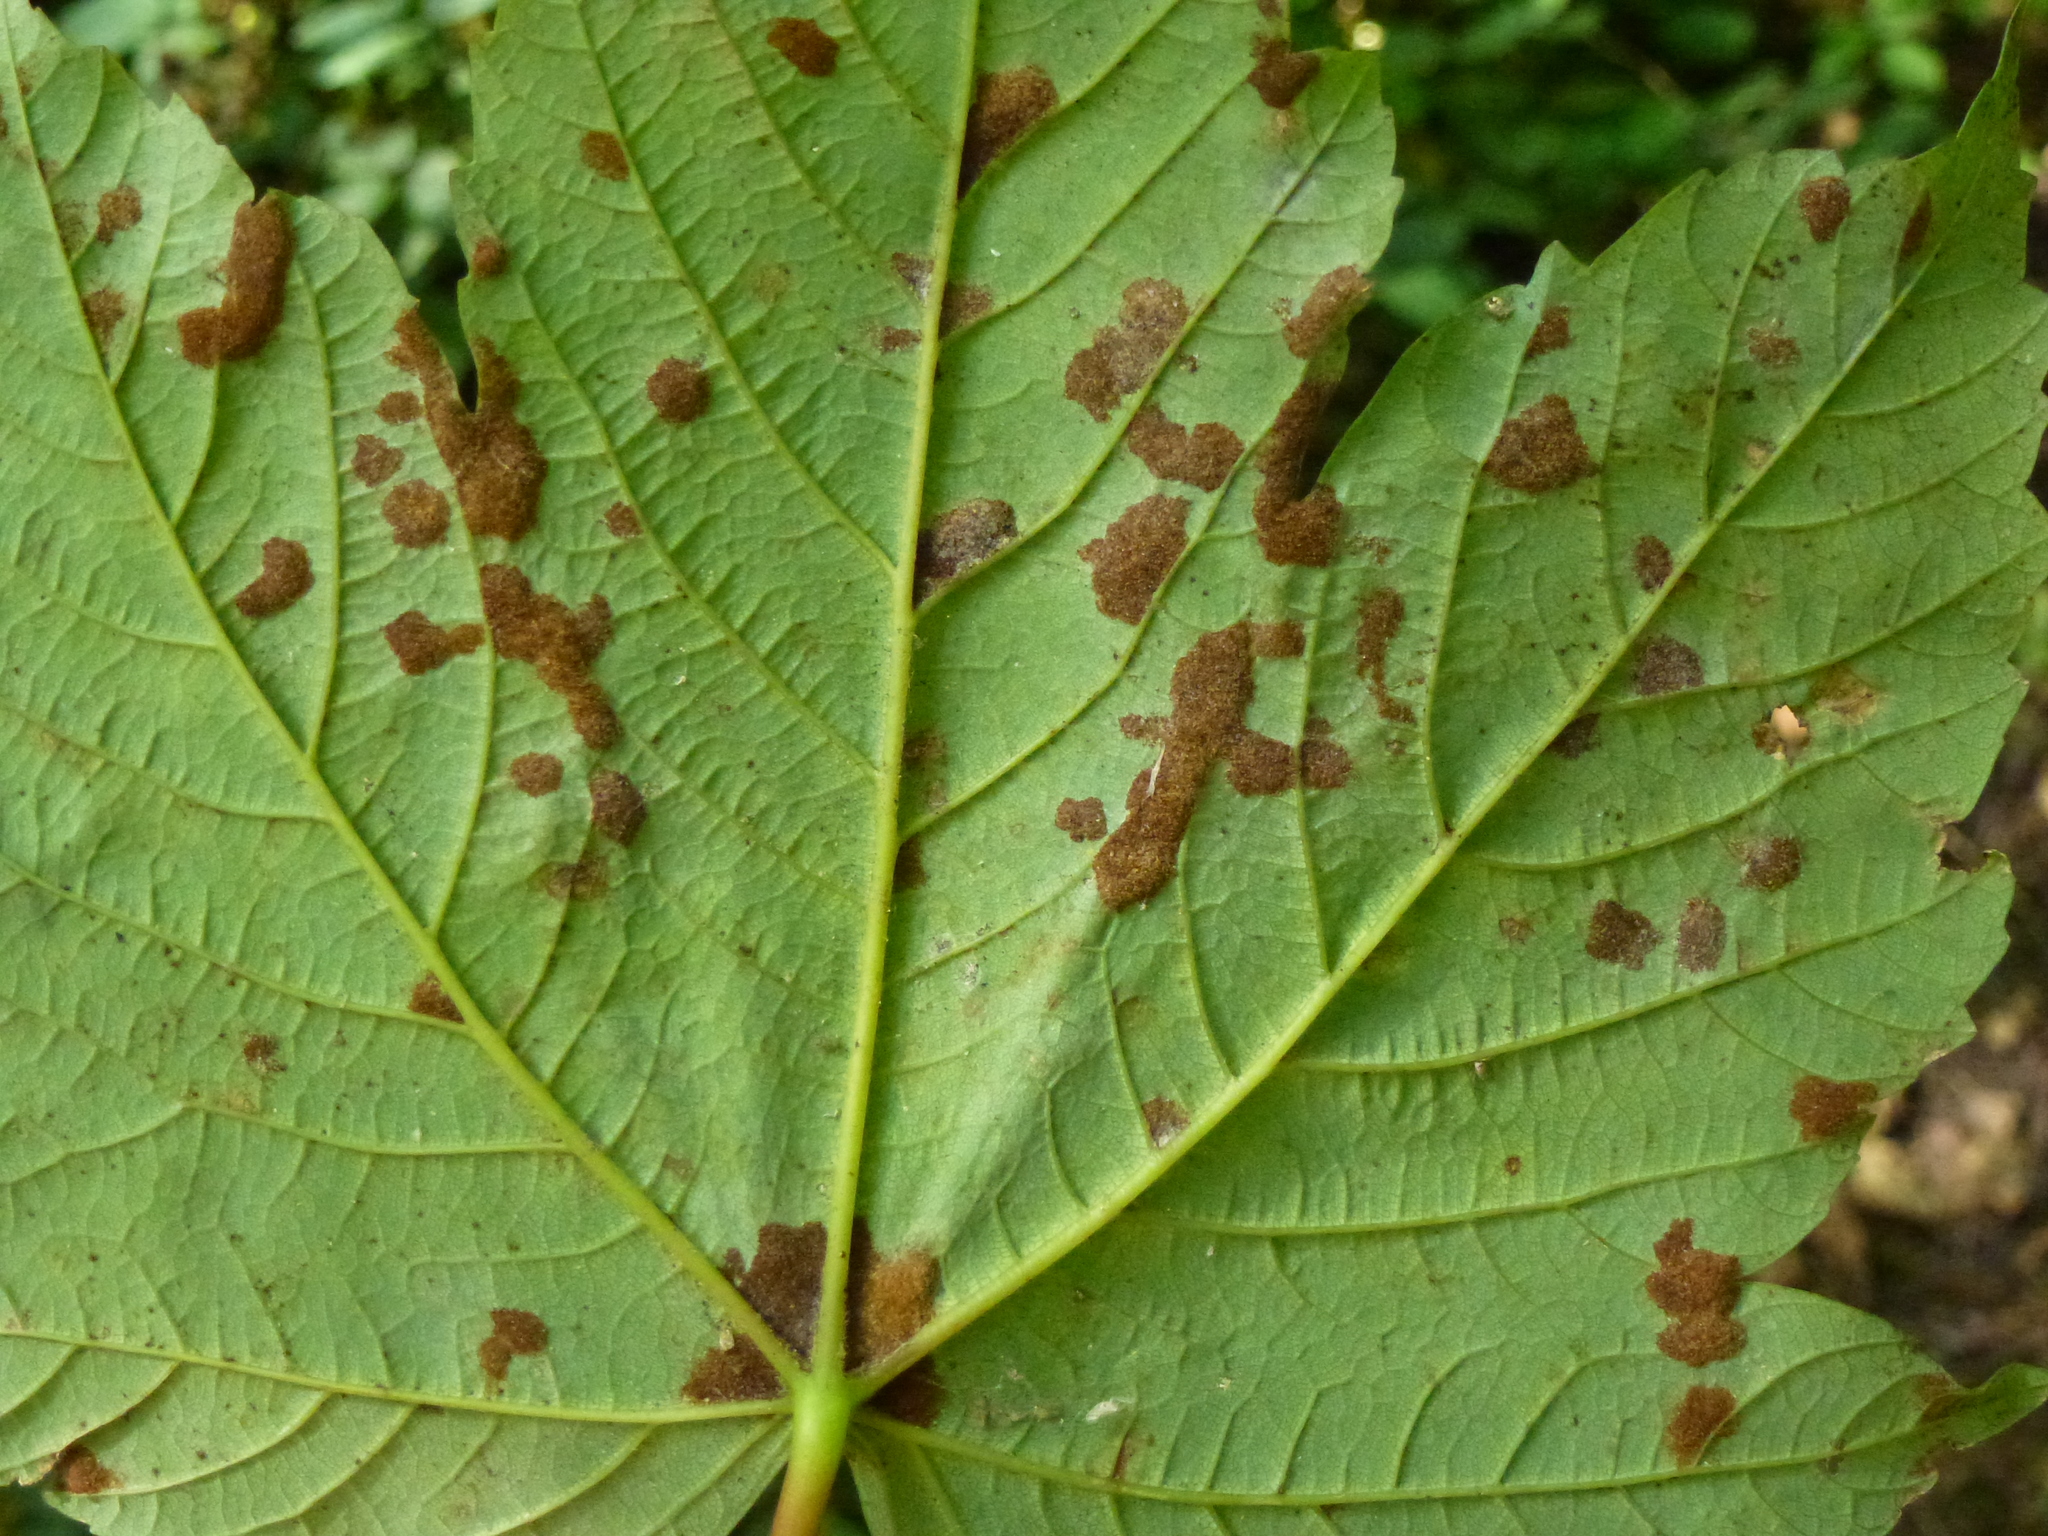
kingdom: Animalia
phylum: Arthropoda
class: Arachnida
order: Trombidiformes
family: Eriophyidae
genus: Aceria
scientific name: Aceria pseudoplatani
